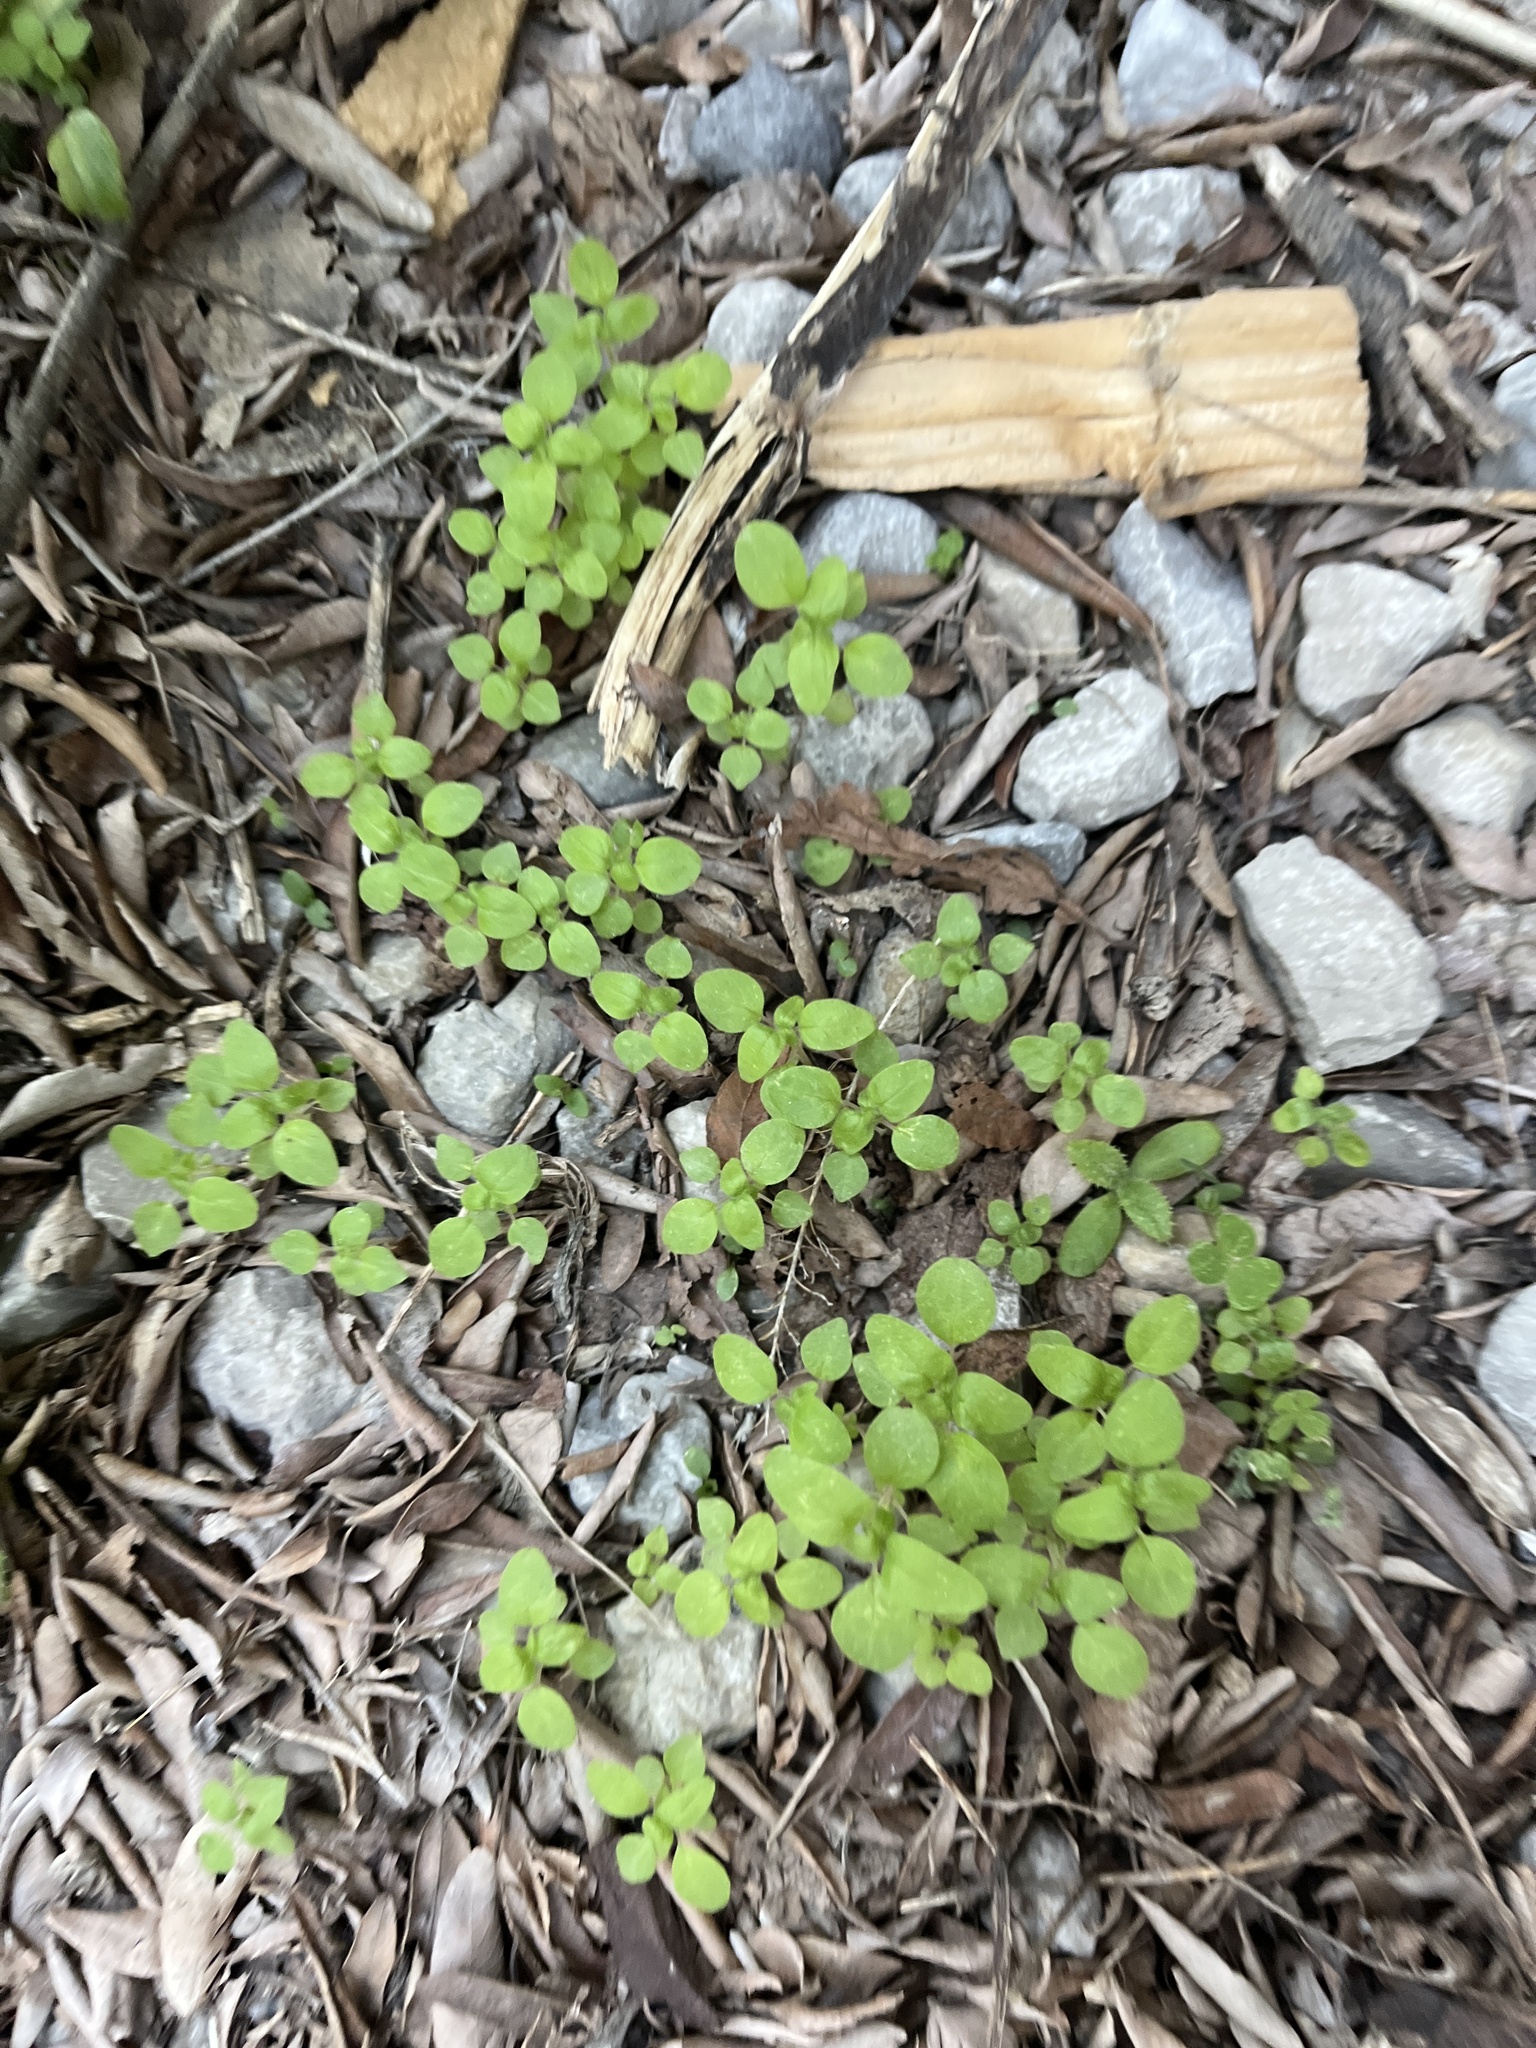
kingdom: Plantae
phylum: Tracheophyta
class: Magnoliopsida
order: Rosales
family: Urticaceae
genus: Parietaria
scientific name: Parietaria pensylvanica
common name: Pennsylvania pellitory
